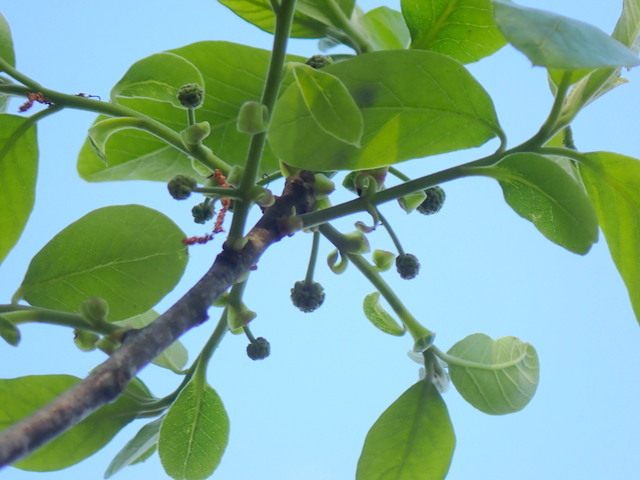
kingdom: Plantae
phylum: Tracheophyta
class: Magnoliopsida
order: Cornales
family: Nyssaceae
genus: Nyssa
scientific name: Nyssa ogeche
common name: Ogeechee tupelo
